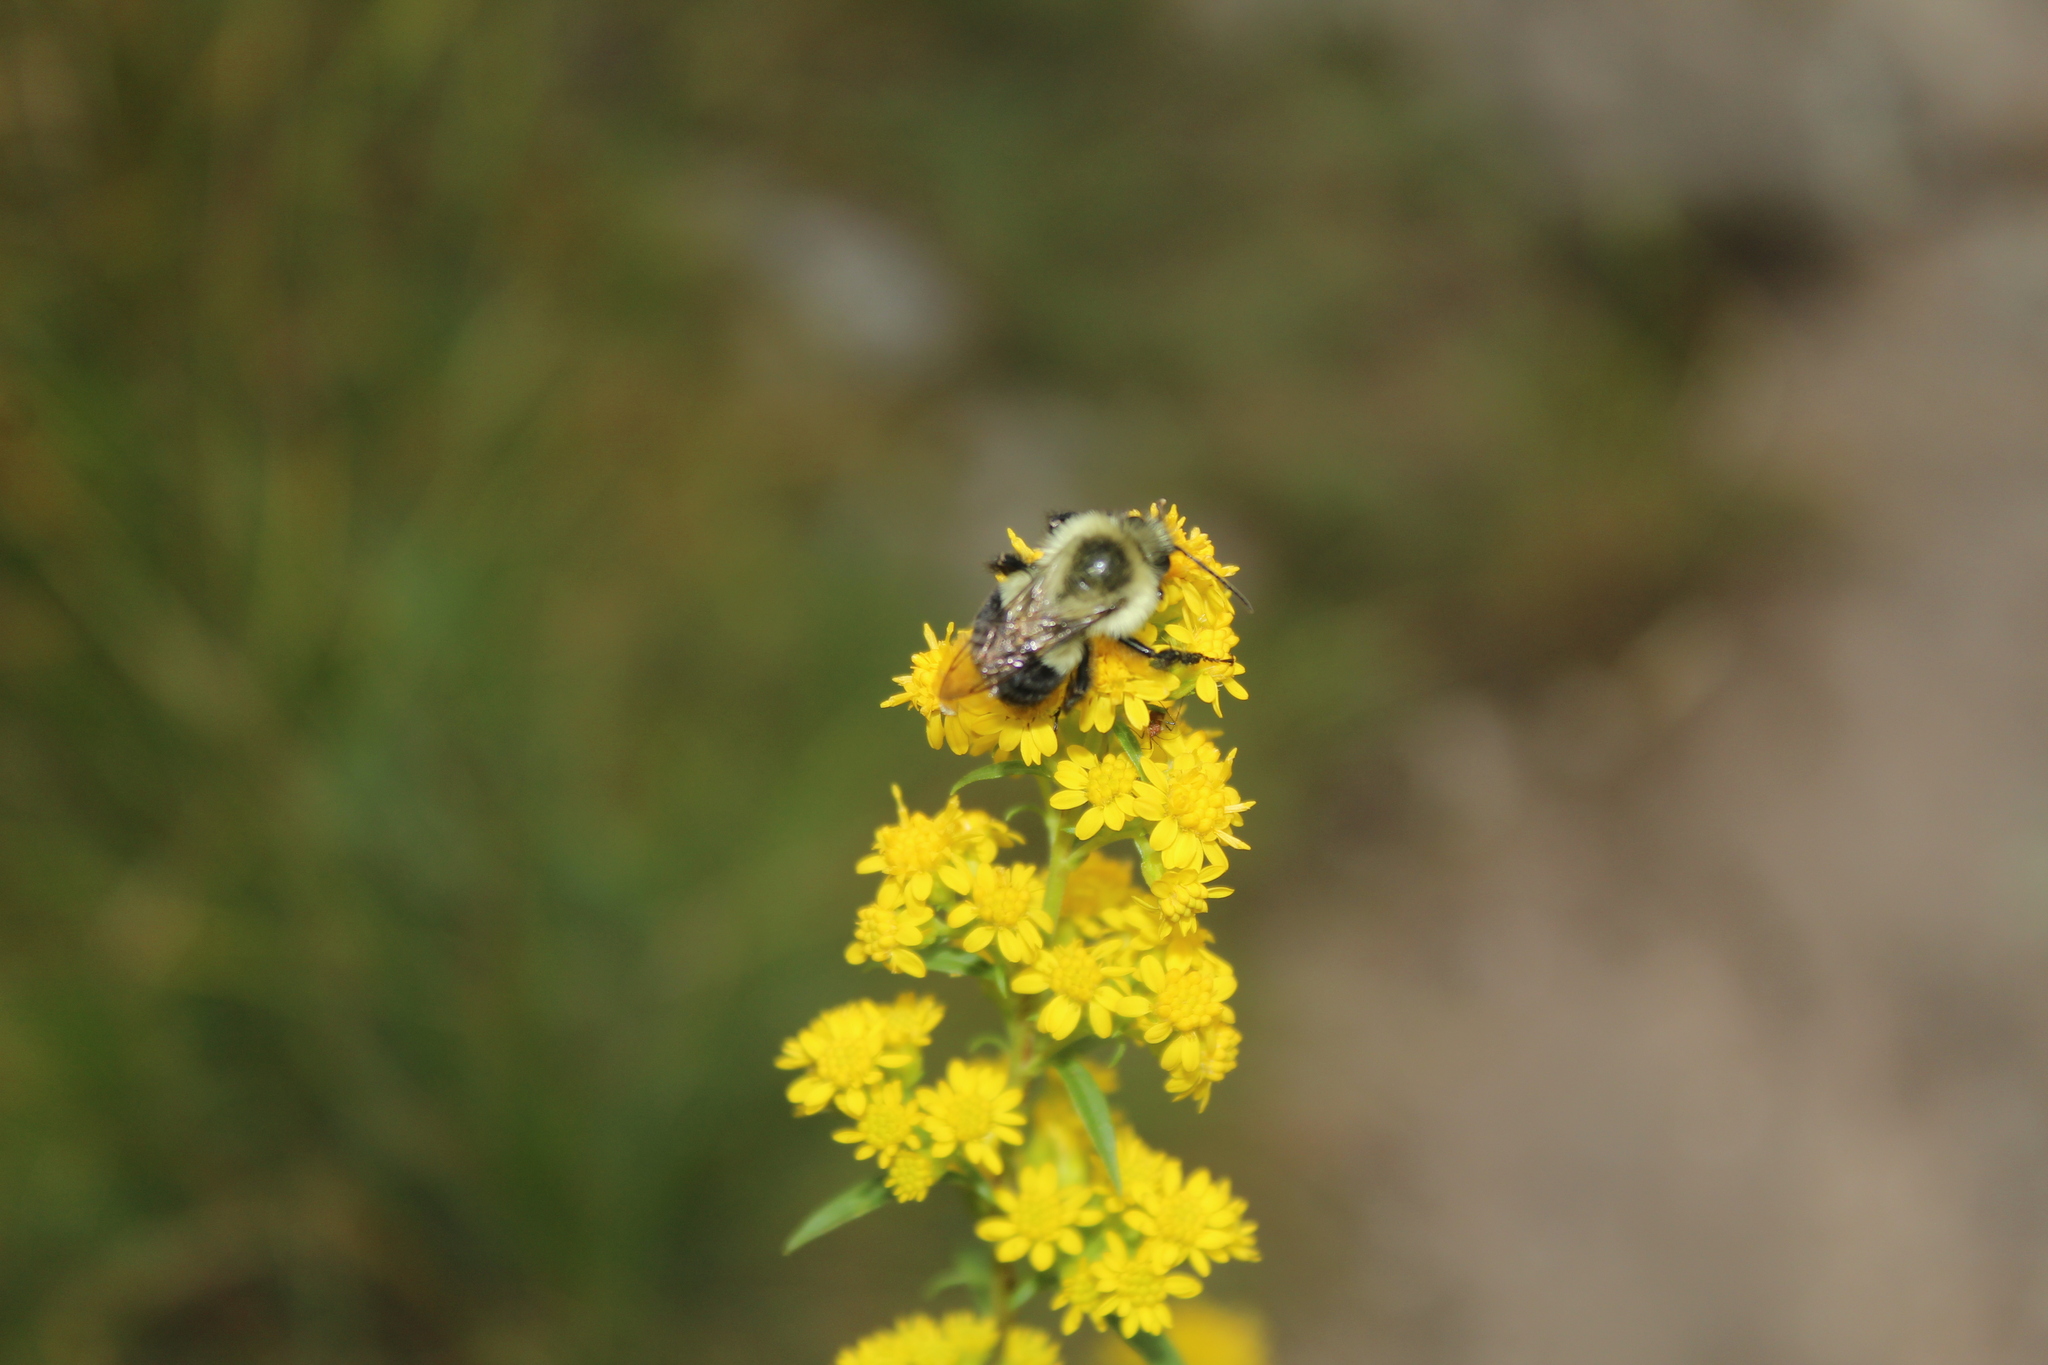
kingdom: Animalia
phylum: Arthropoda
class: Insecta
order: Hymenoptera
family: Apidae
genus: Bombus
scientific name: Bombus impatiens
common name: Common eastern bumble bee
